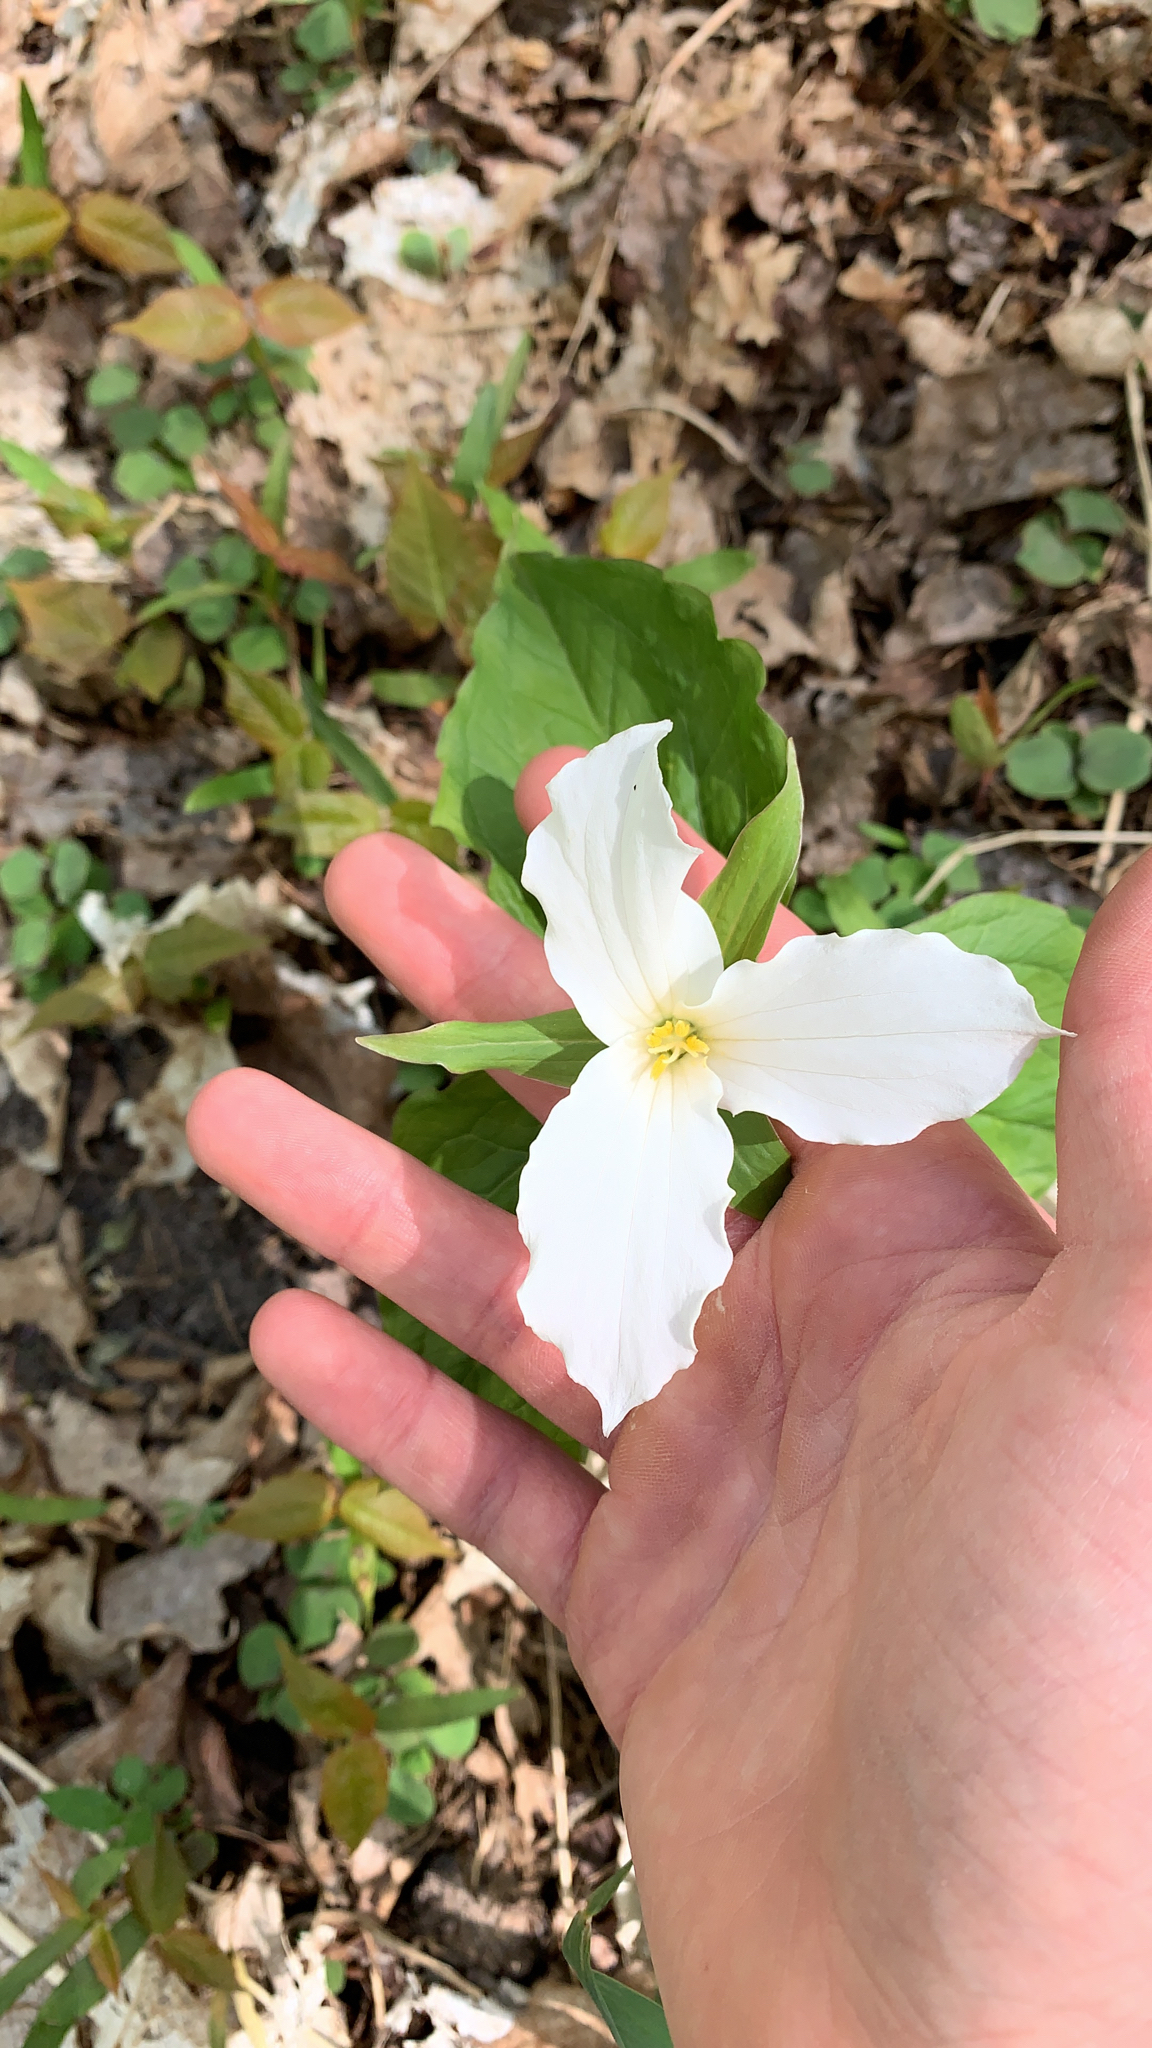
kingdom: Plantae
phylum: Tracheophyta
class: Liliopsida
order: Liliales
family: Melanthiaceae
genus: Trillium
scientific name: Trillium grandiflorum
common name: Great white trillium
